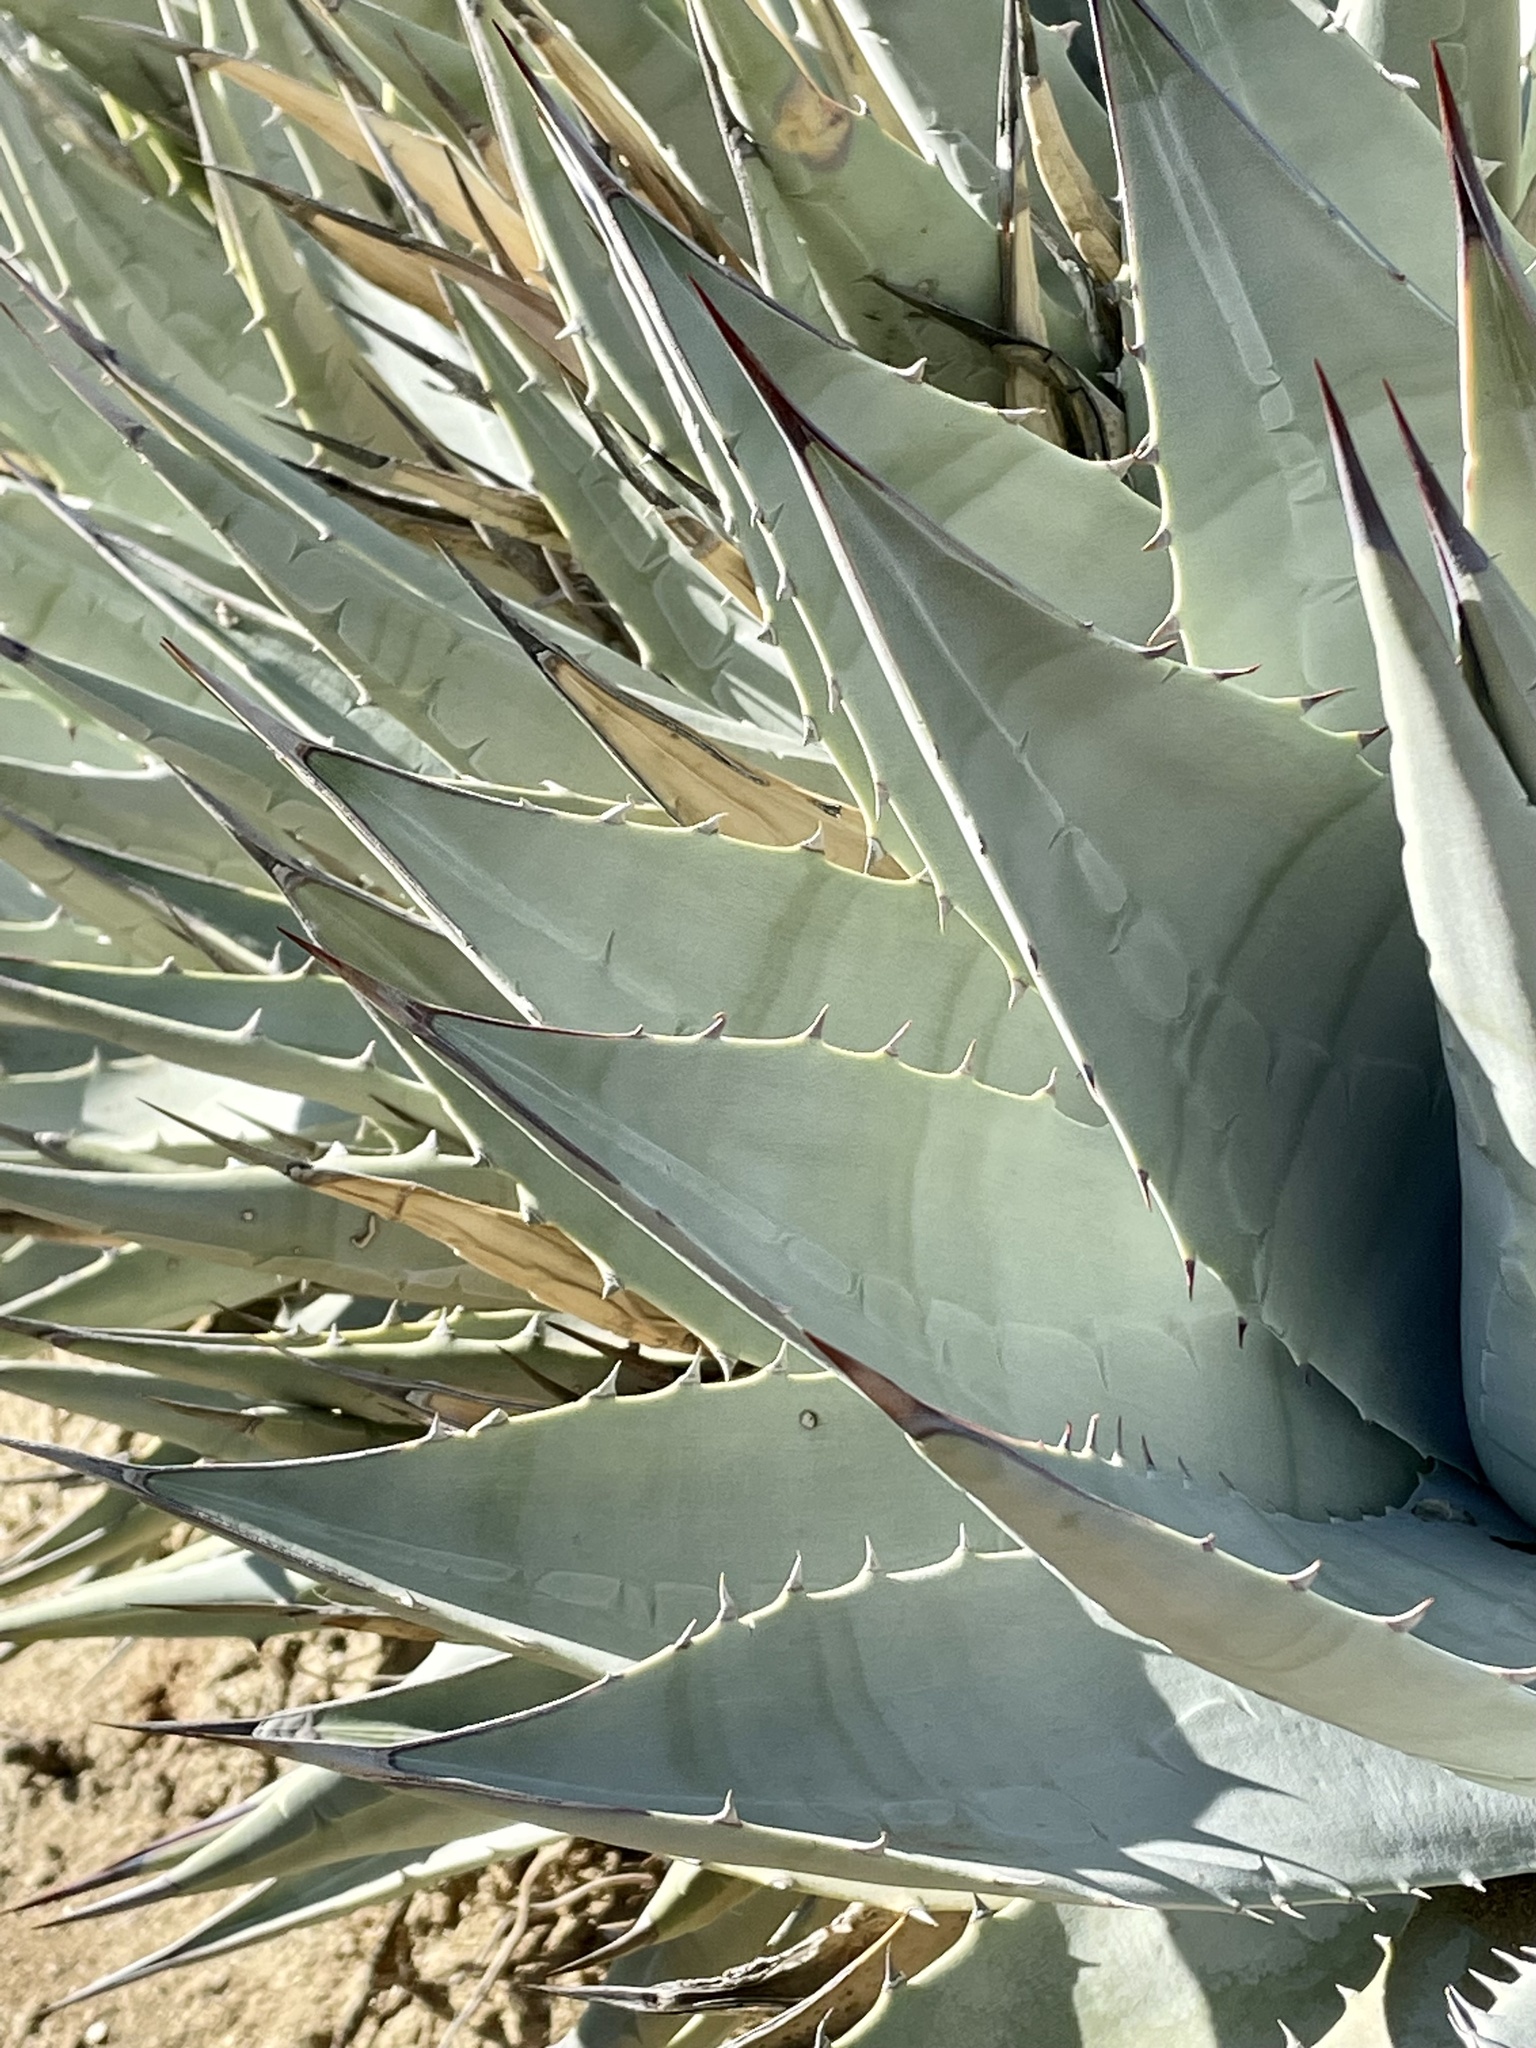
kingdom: Plantae
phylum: Tracheophyta
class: Liliopsida
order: Asparagales
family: Asparagaceae
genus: Agave
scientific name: Agave deserti
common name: Desert agave
